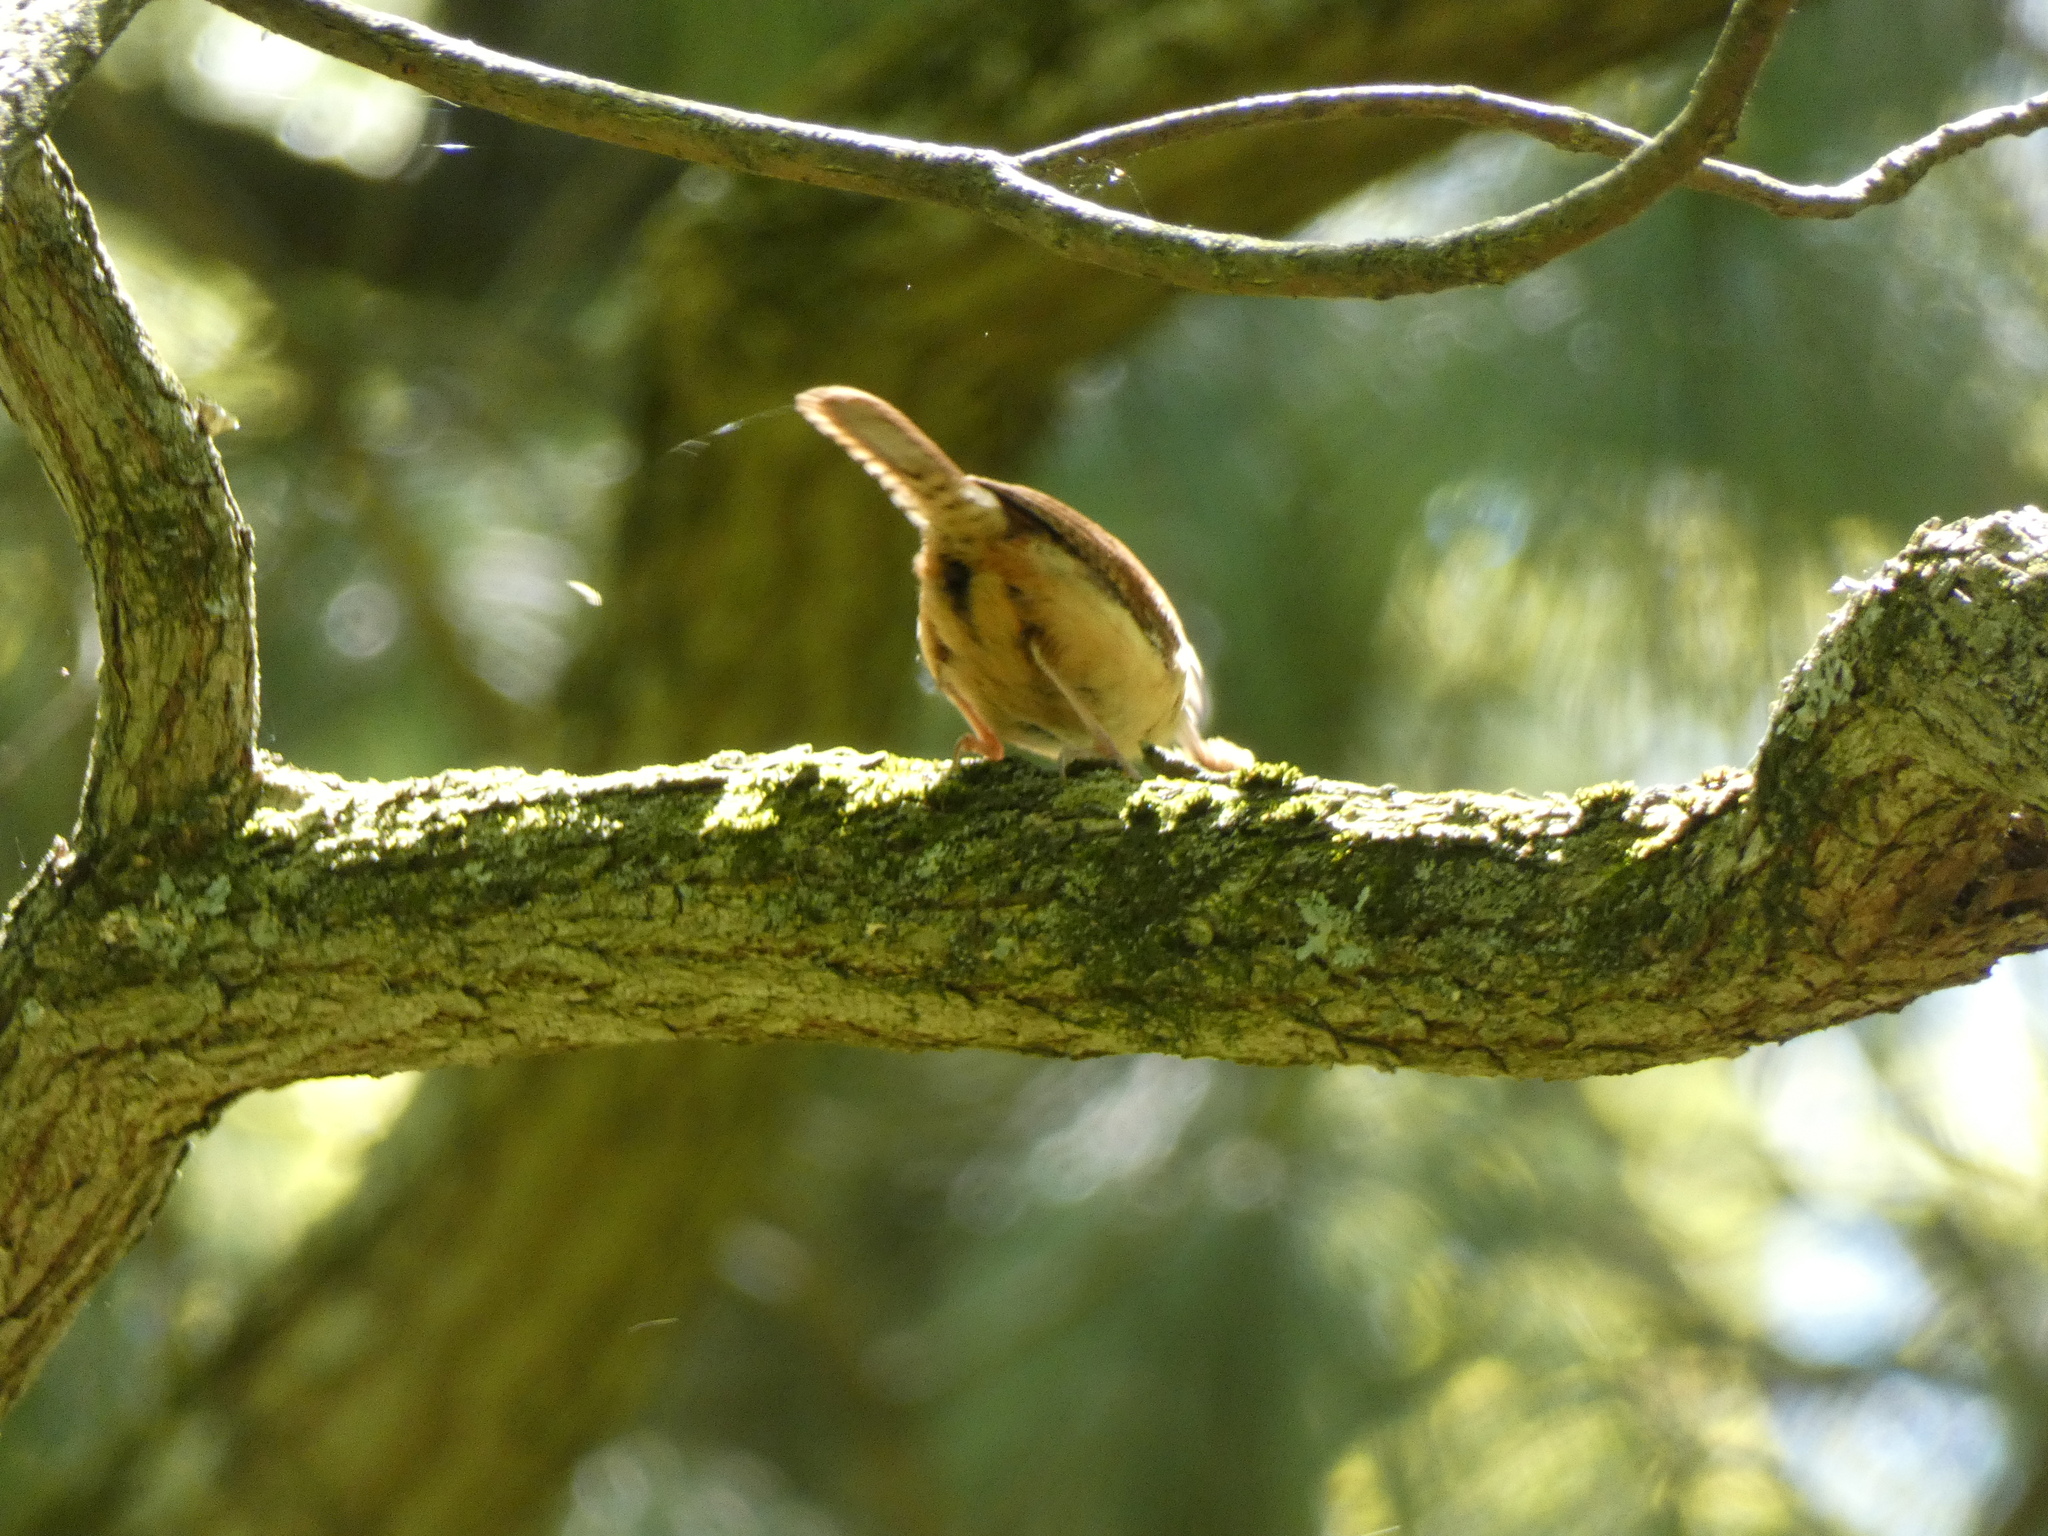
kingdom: Animalia
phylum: Chordata
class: Aves
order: Passeriformes
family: Troglodytidae
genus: Thryothorus
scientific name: Thryothorus ludovicianus
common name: Carolina wren
